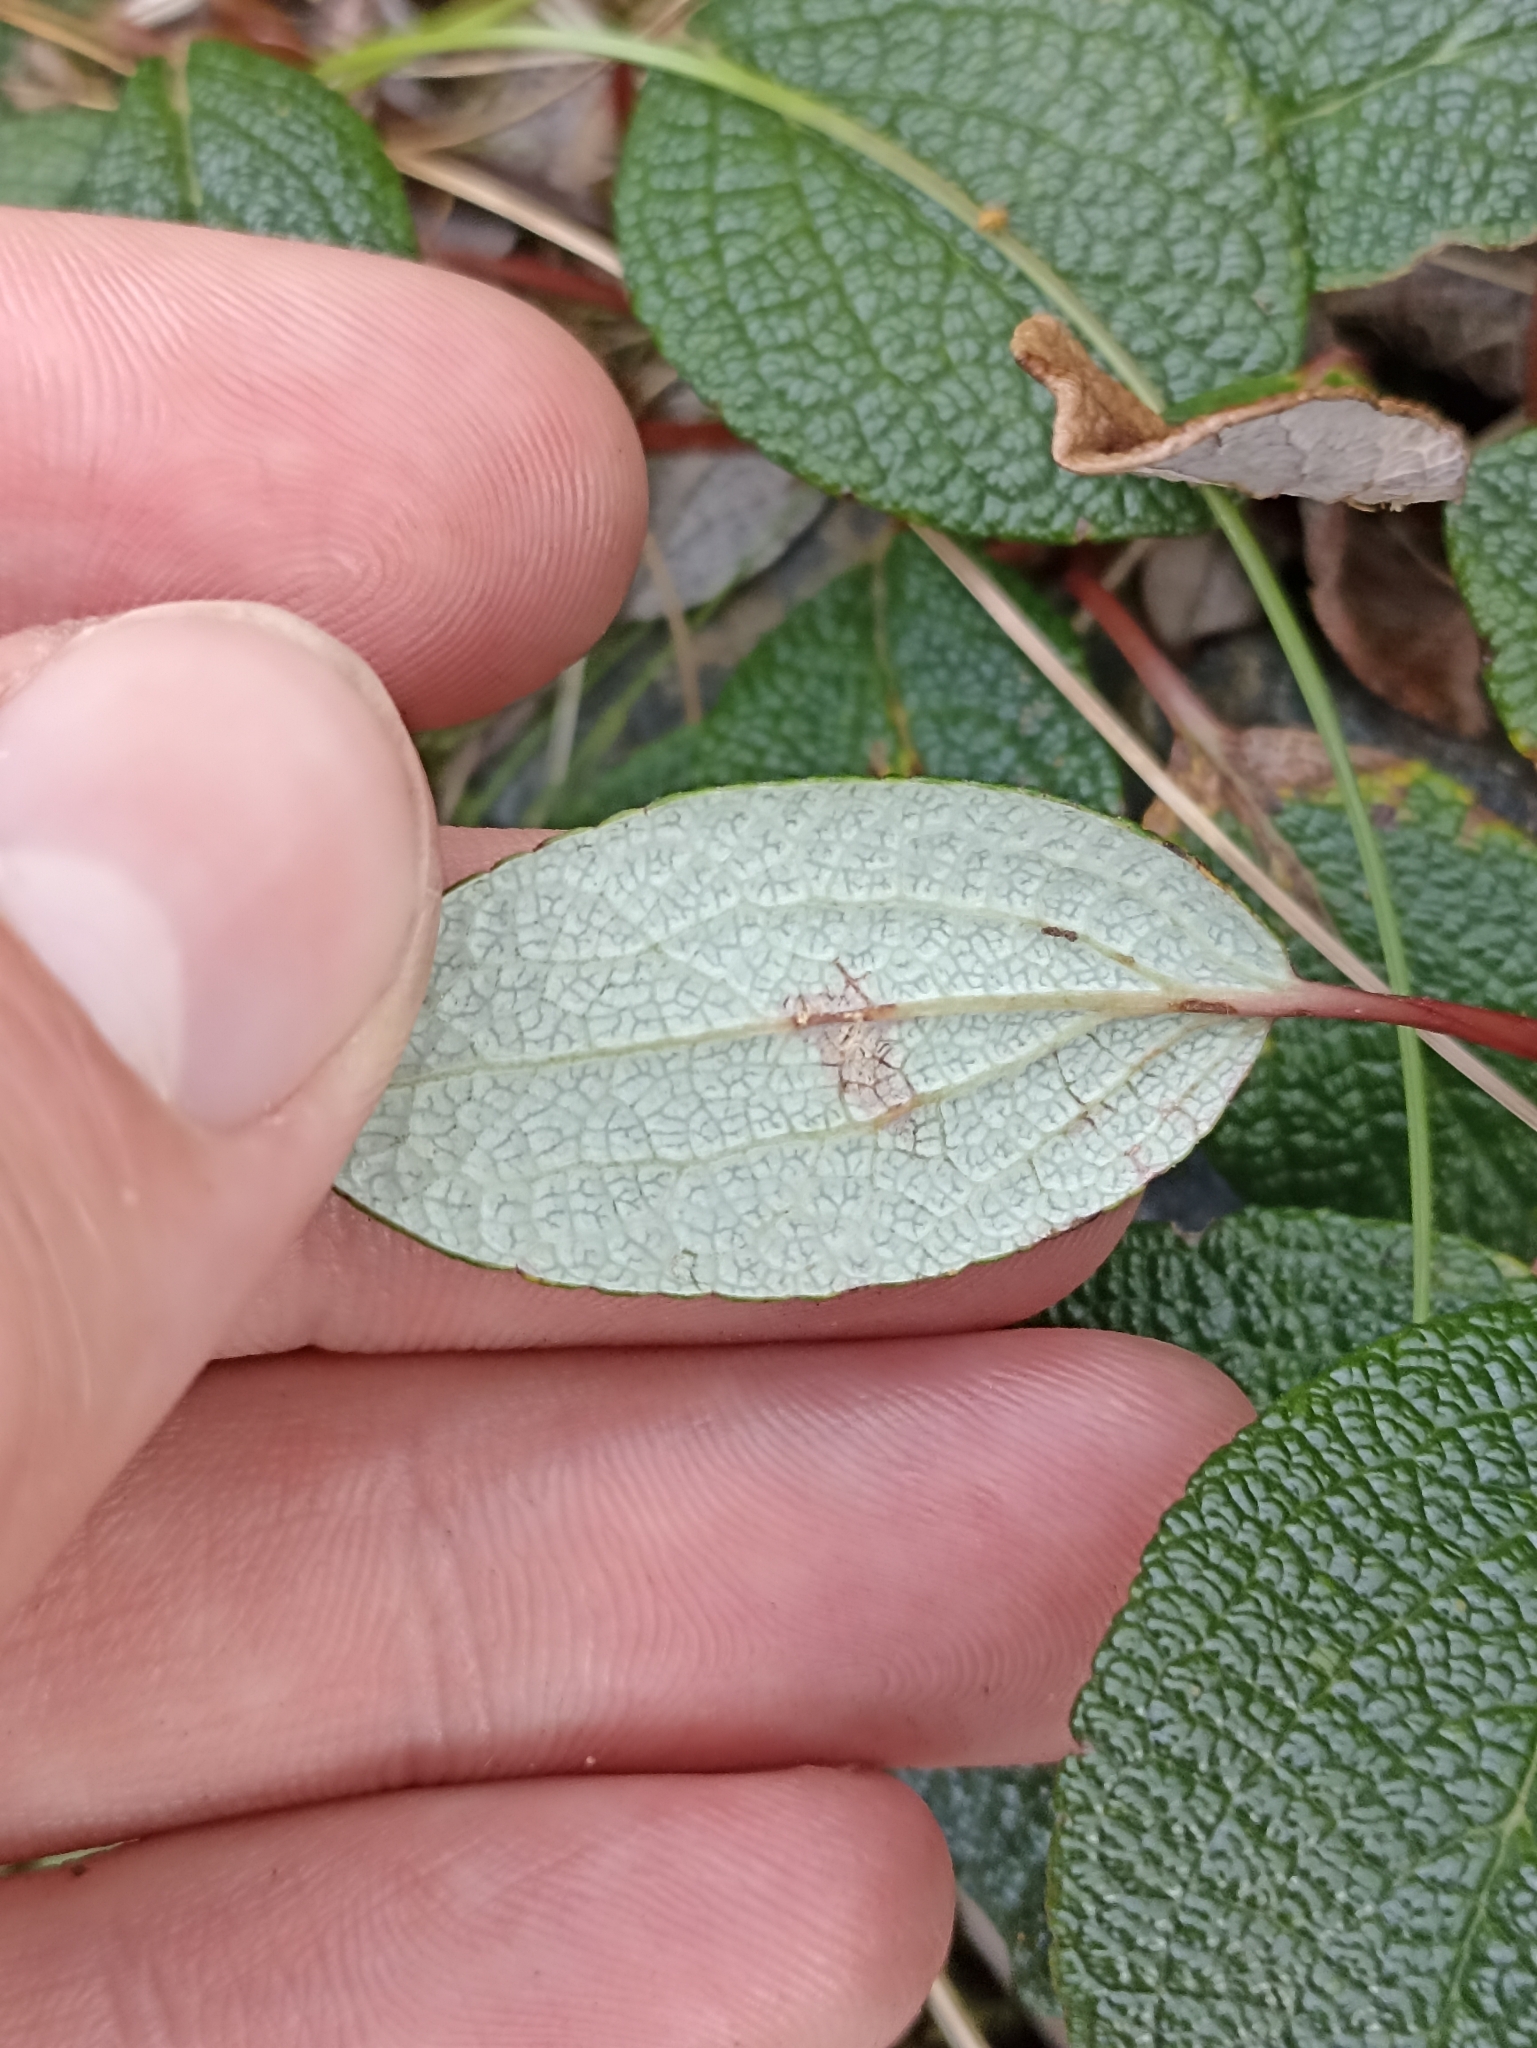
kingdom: Plantae
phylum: Tracheophyta
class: Magnoliopsida
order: Malpighiales
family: Salicaceae
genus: Salix
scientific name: Salix reticulata
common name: Net-leaved willow
